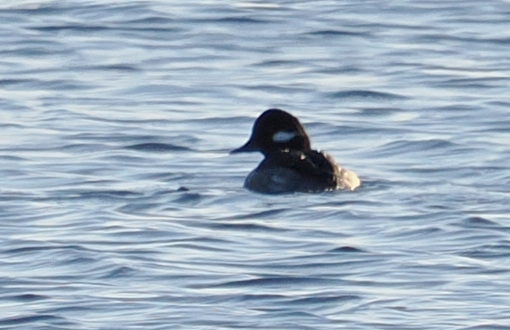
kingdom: Animalia
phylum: Chordata
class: Aves
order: Anseriformes
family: Anatidae
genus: Bucephala
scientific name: Bucephala albeola
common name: Bufflehead
